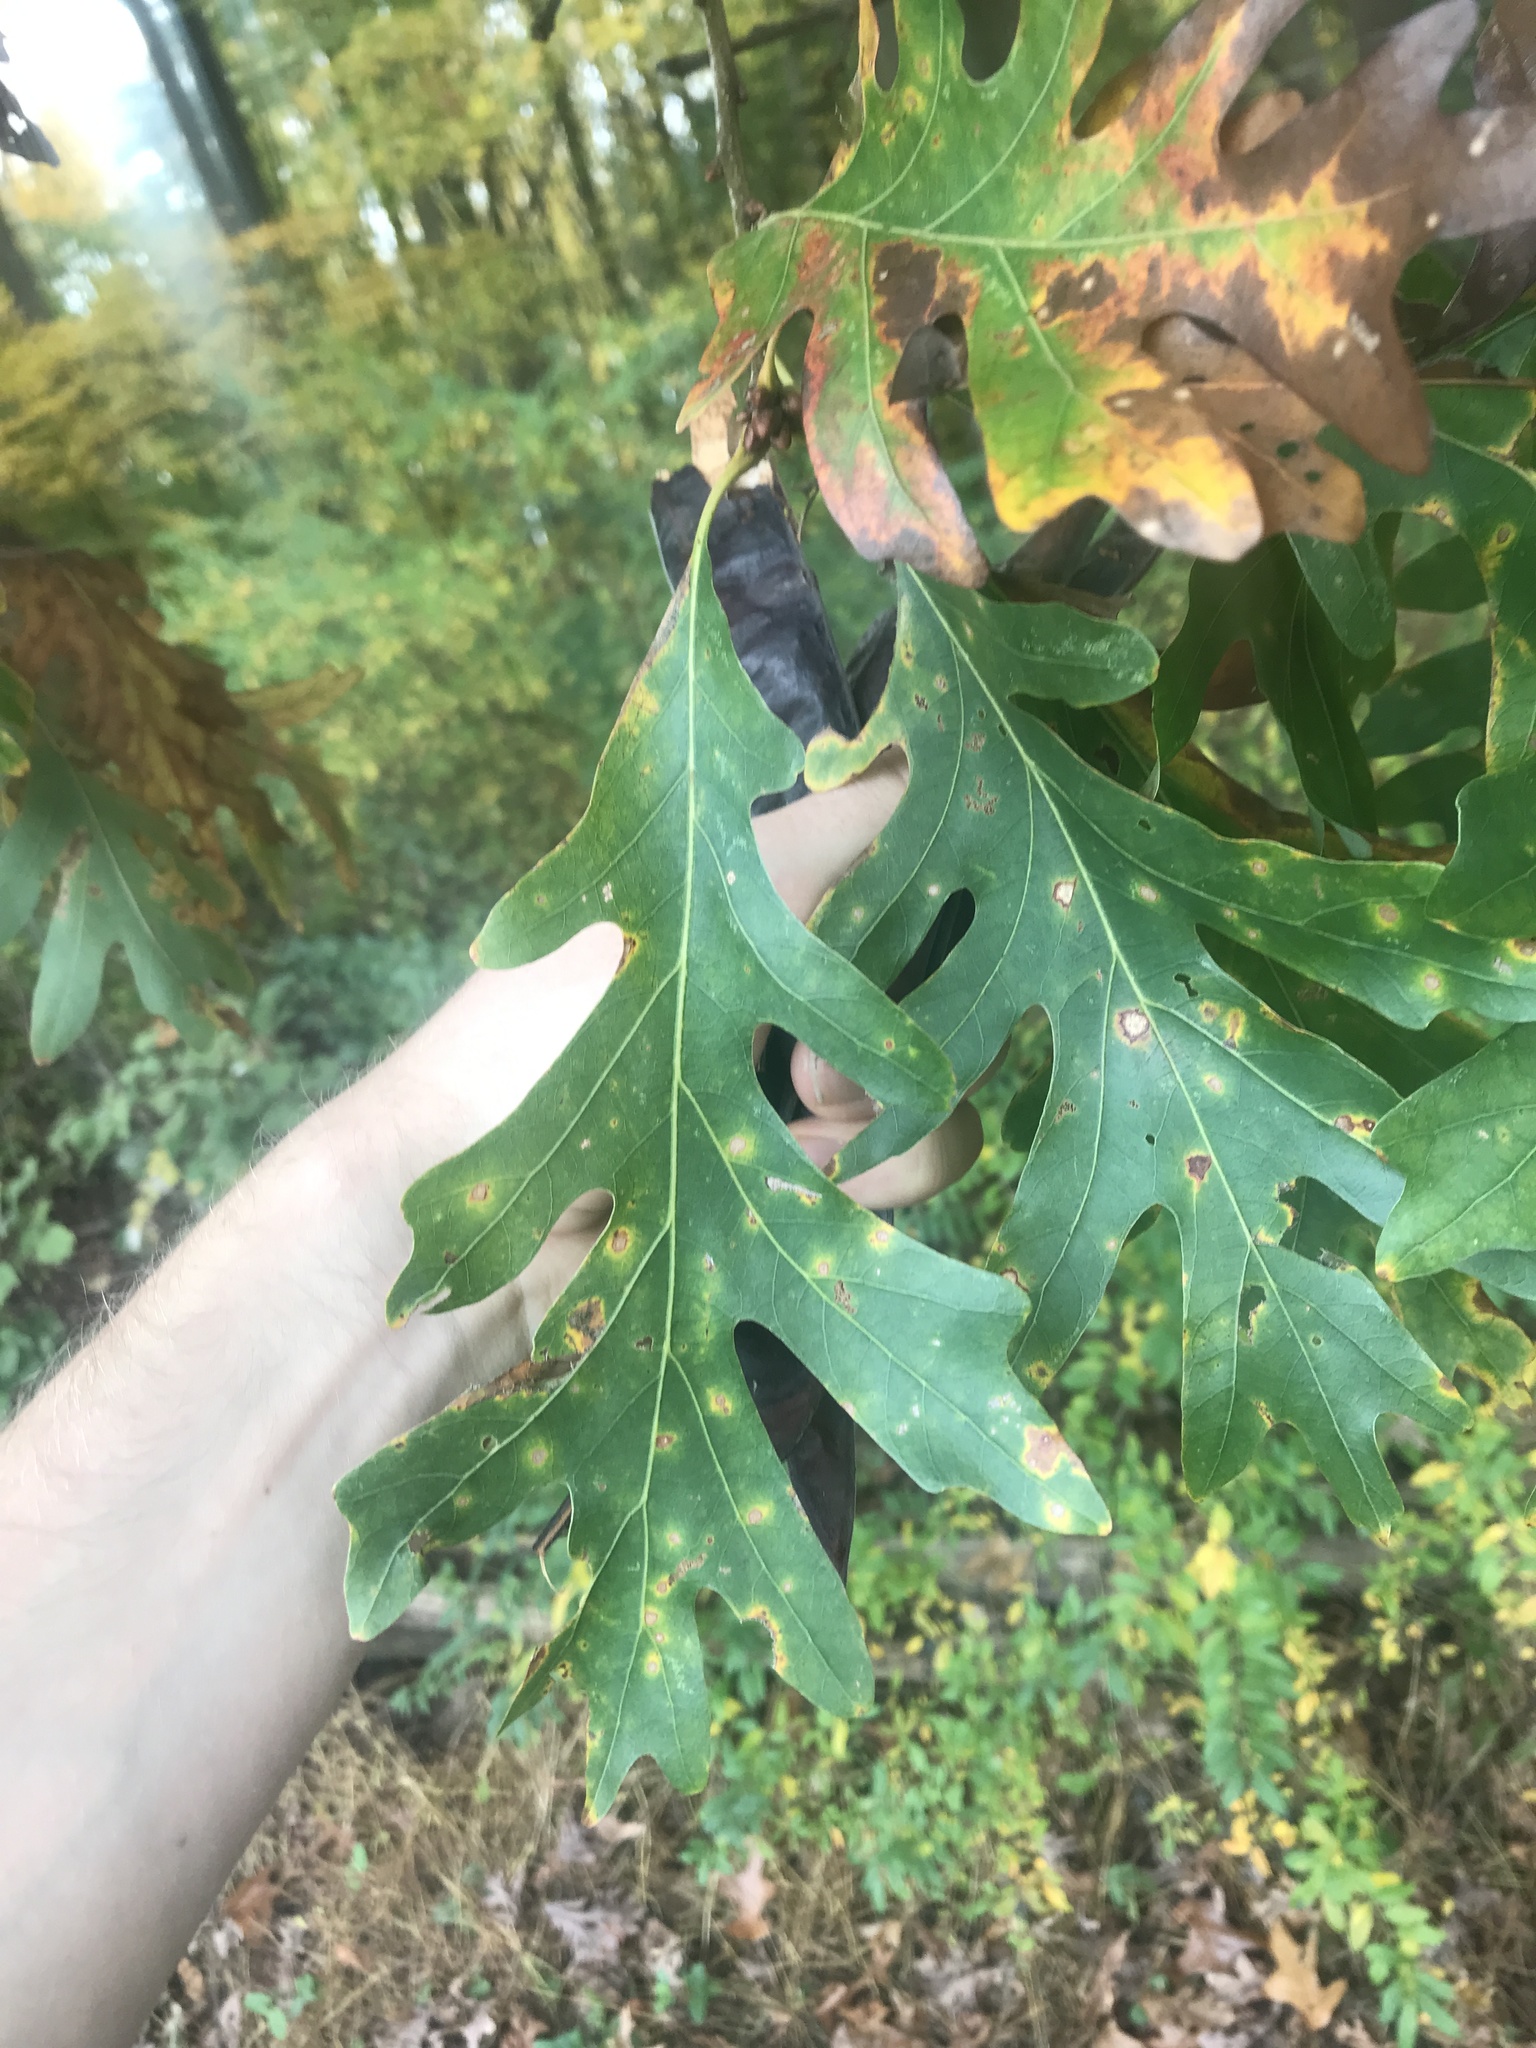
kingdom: Plantae
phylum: Tracheophyta
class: Magnoliopsida
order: Fagales
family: Fagaceae
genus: Quercus
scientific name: Quercus alba
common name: White oak
